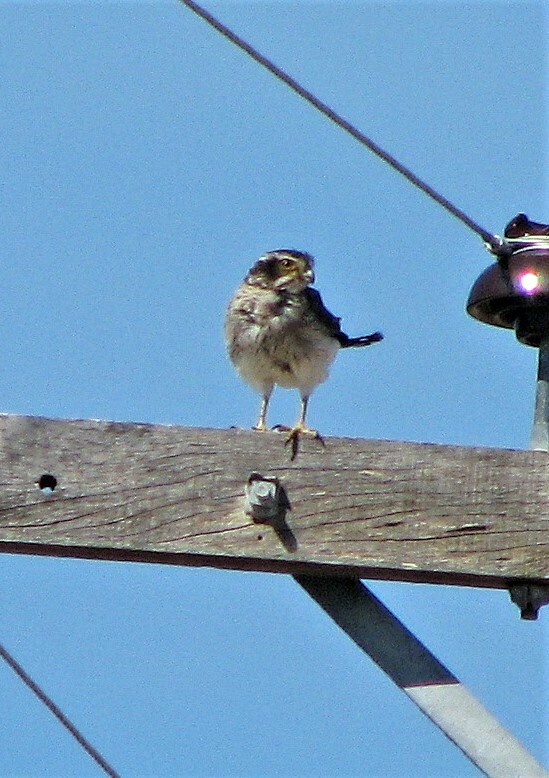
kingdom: Animalia
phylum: Chordata
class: Aves
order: Falconiformes
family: Falconidae
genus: Spiziapteryx
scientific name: Spiziapteryx circumcincta
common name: Spot-winged falconet
